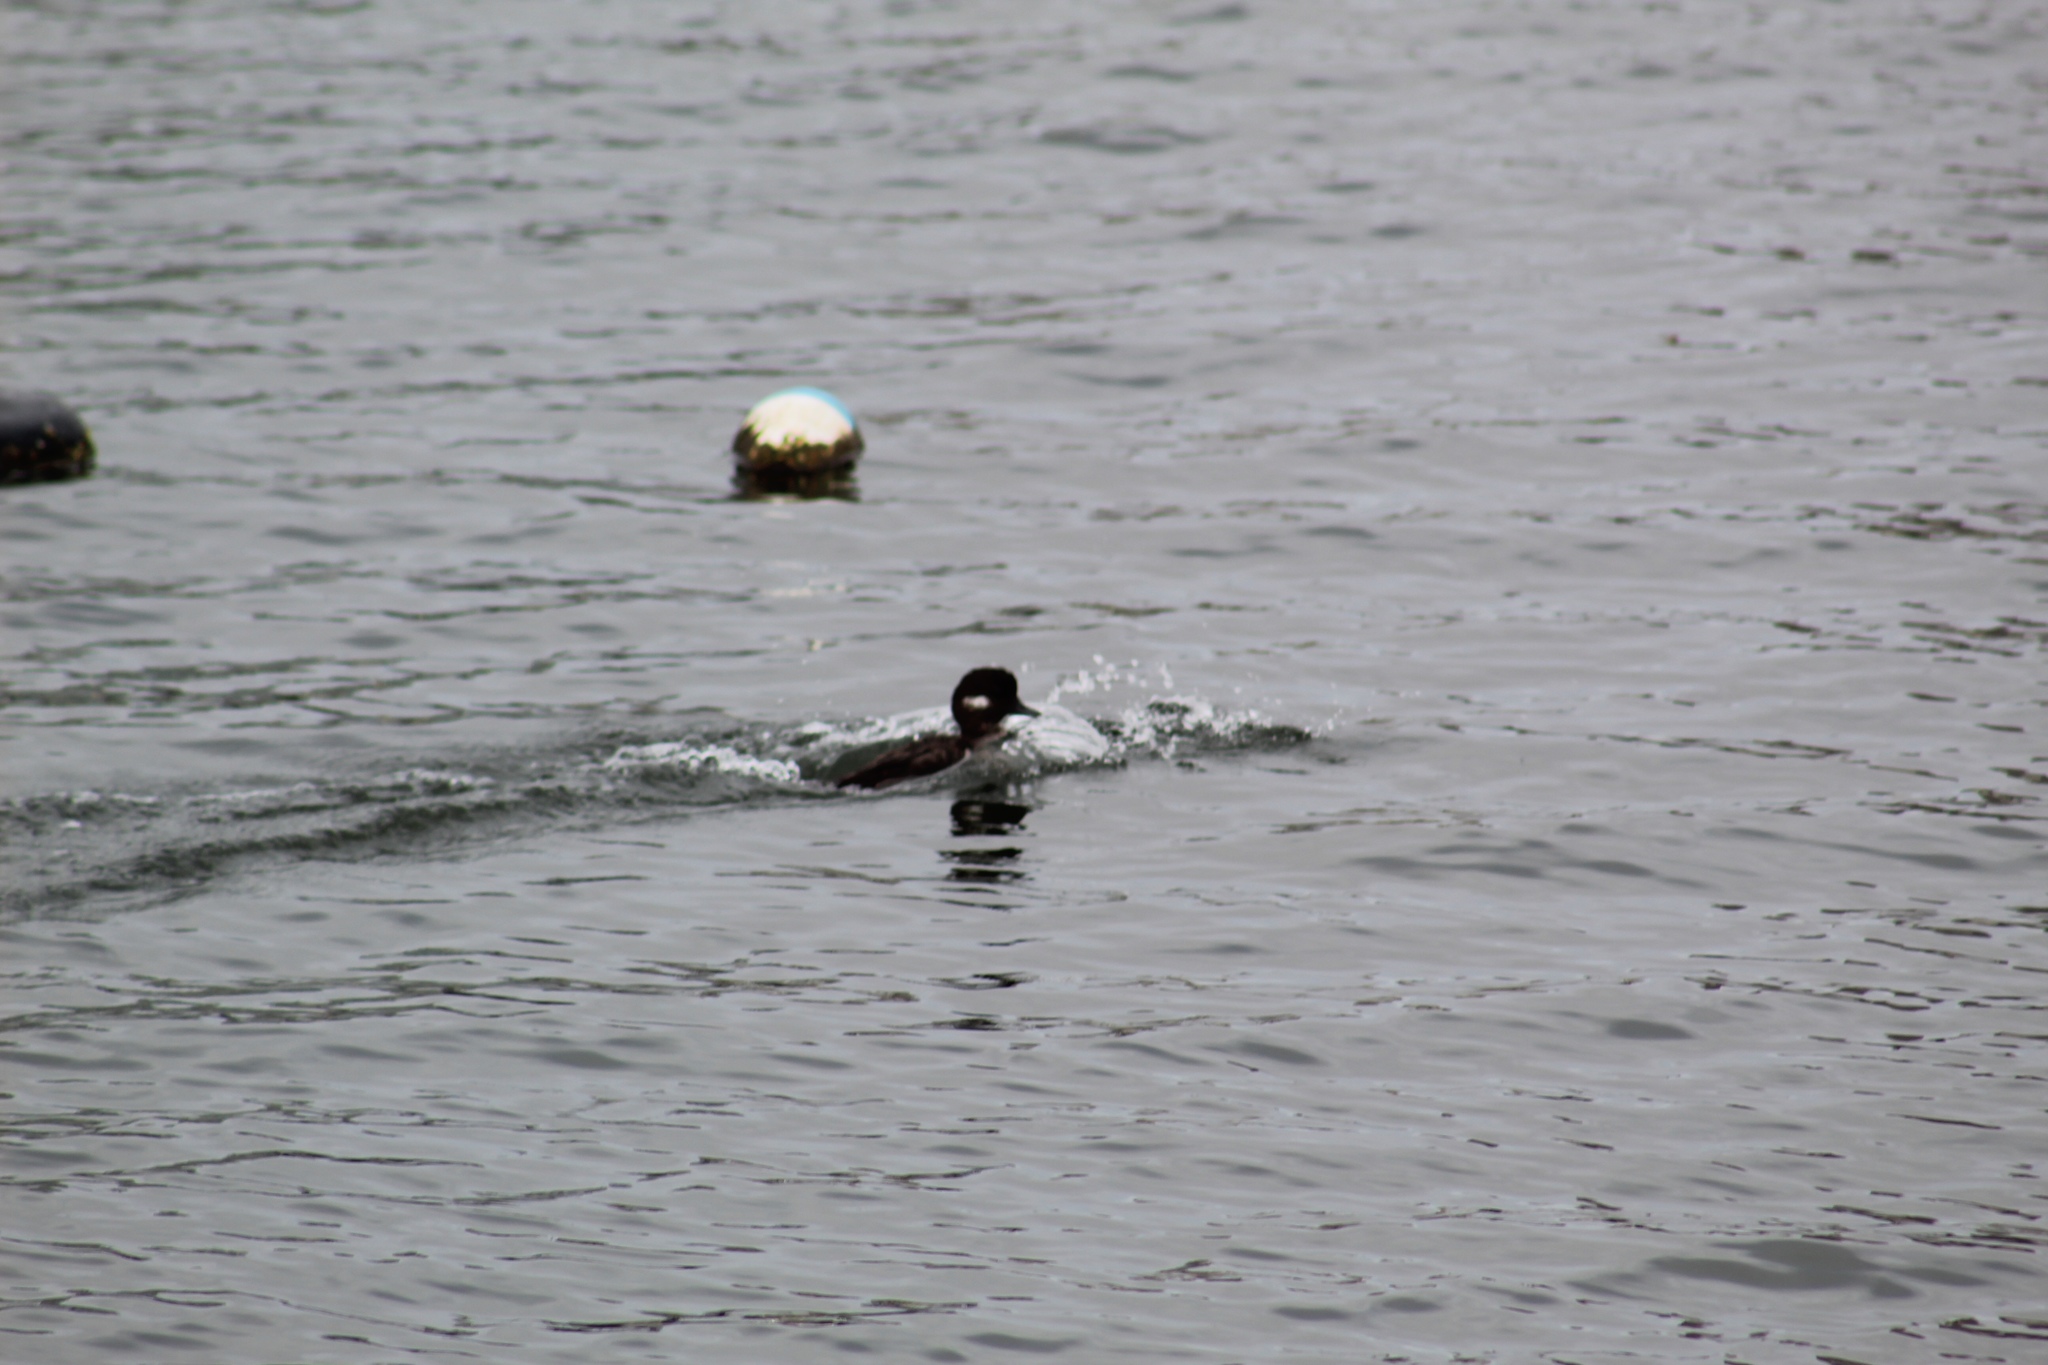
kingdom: Animalia
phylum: Chordata
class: Aves
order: Anseriformes
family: Anatidae
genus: Bucephala
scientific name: Bucephala albeola
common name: Bufflehead
